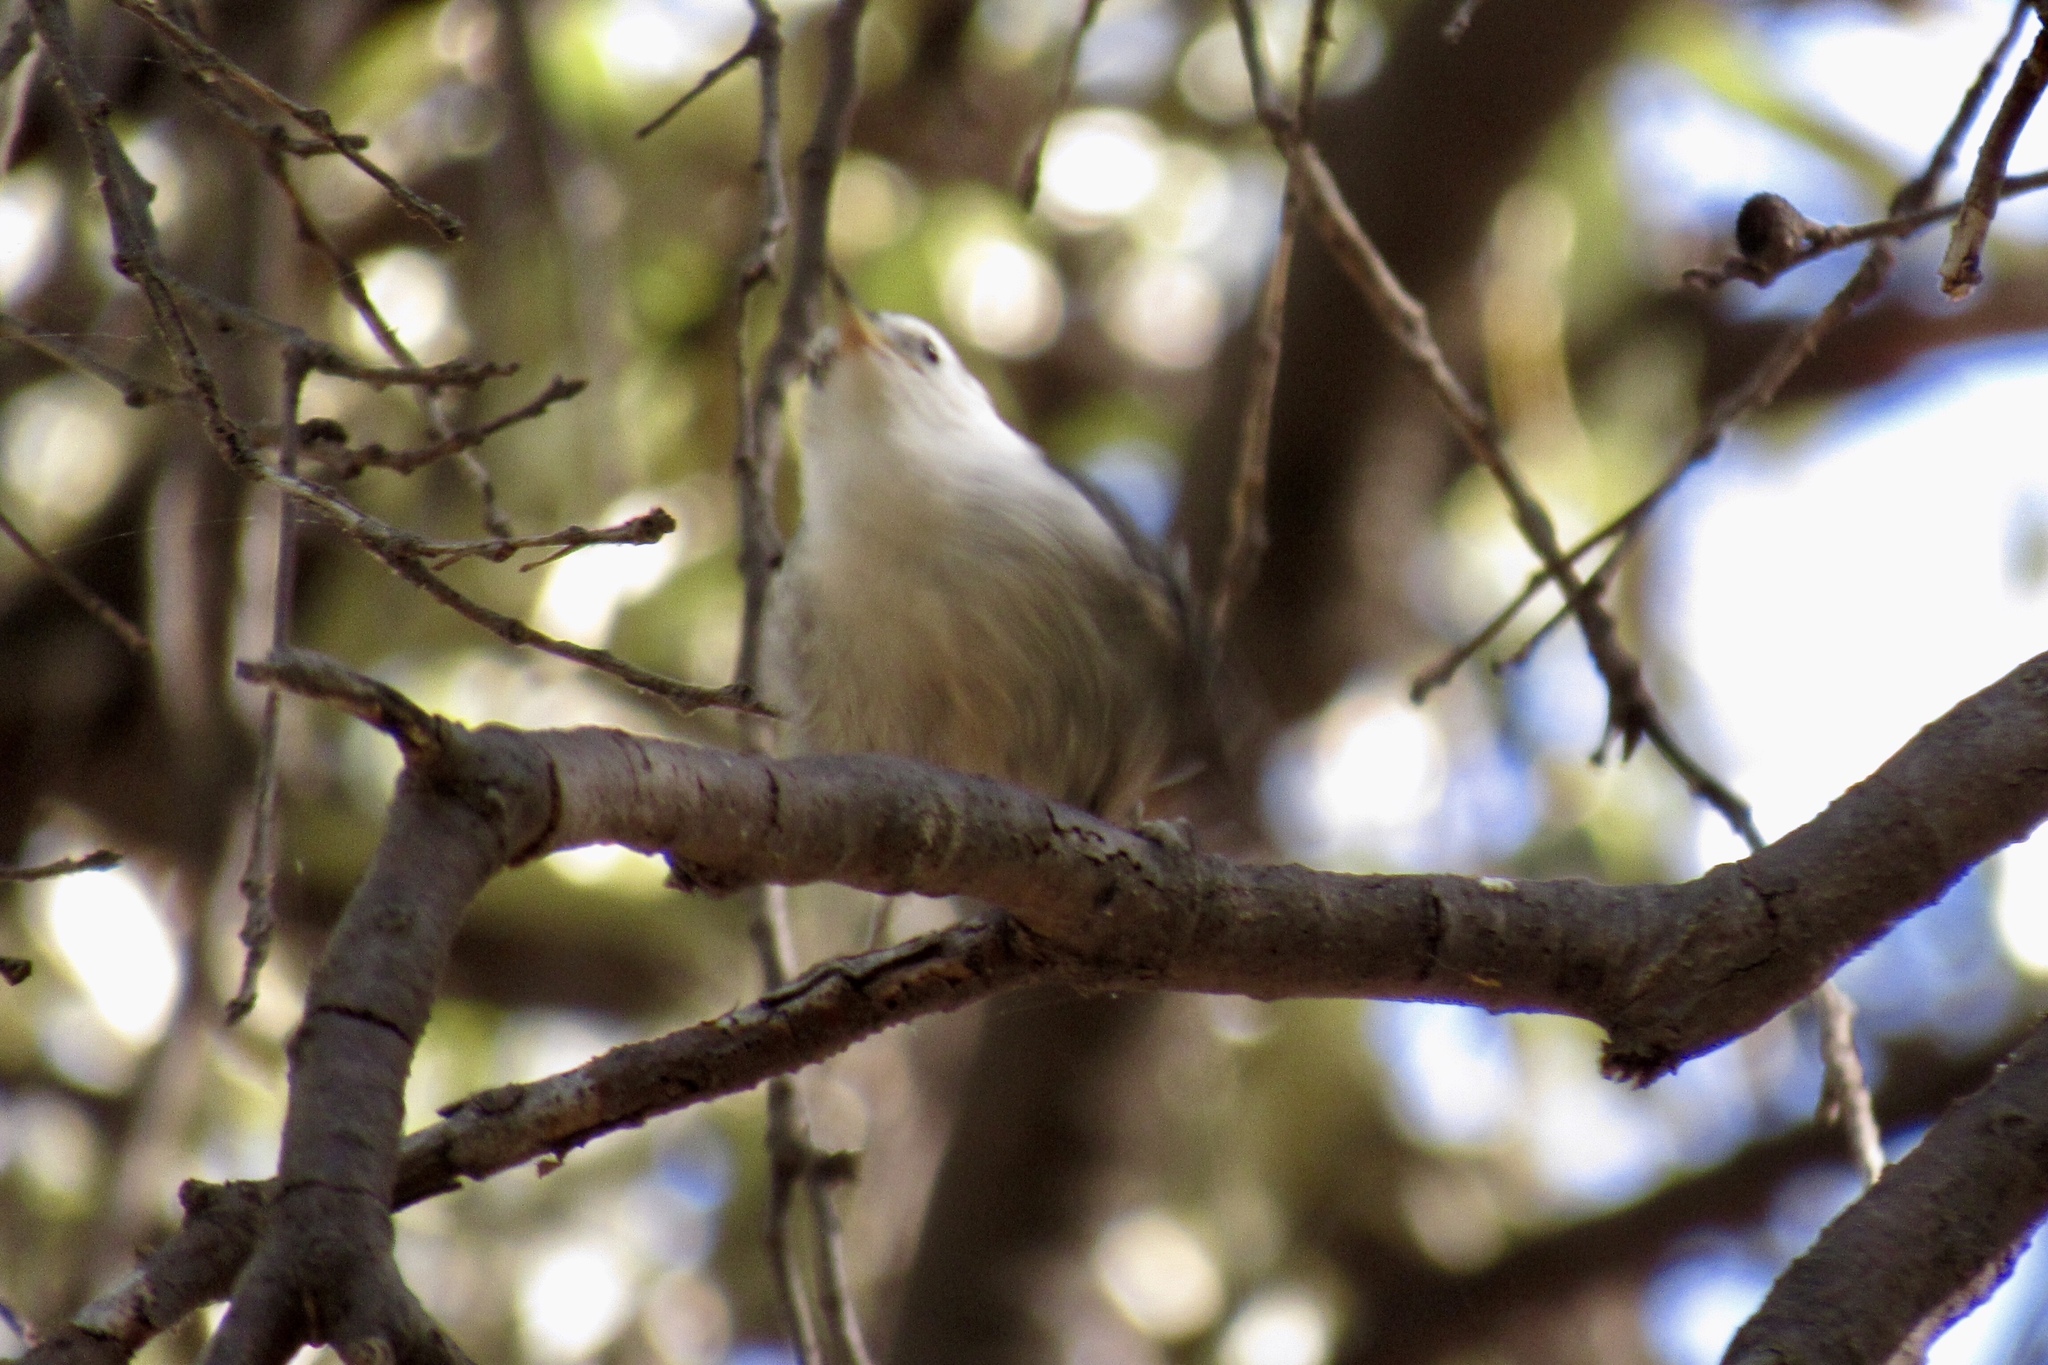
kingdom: Animalia
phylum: Chordata
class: Aves
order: Passeriformes
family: Sittidae
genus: Sitta
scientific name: Sitta carolinensis
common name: White-breasted nuthatch
